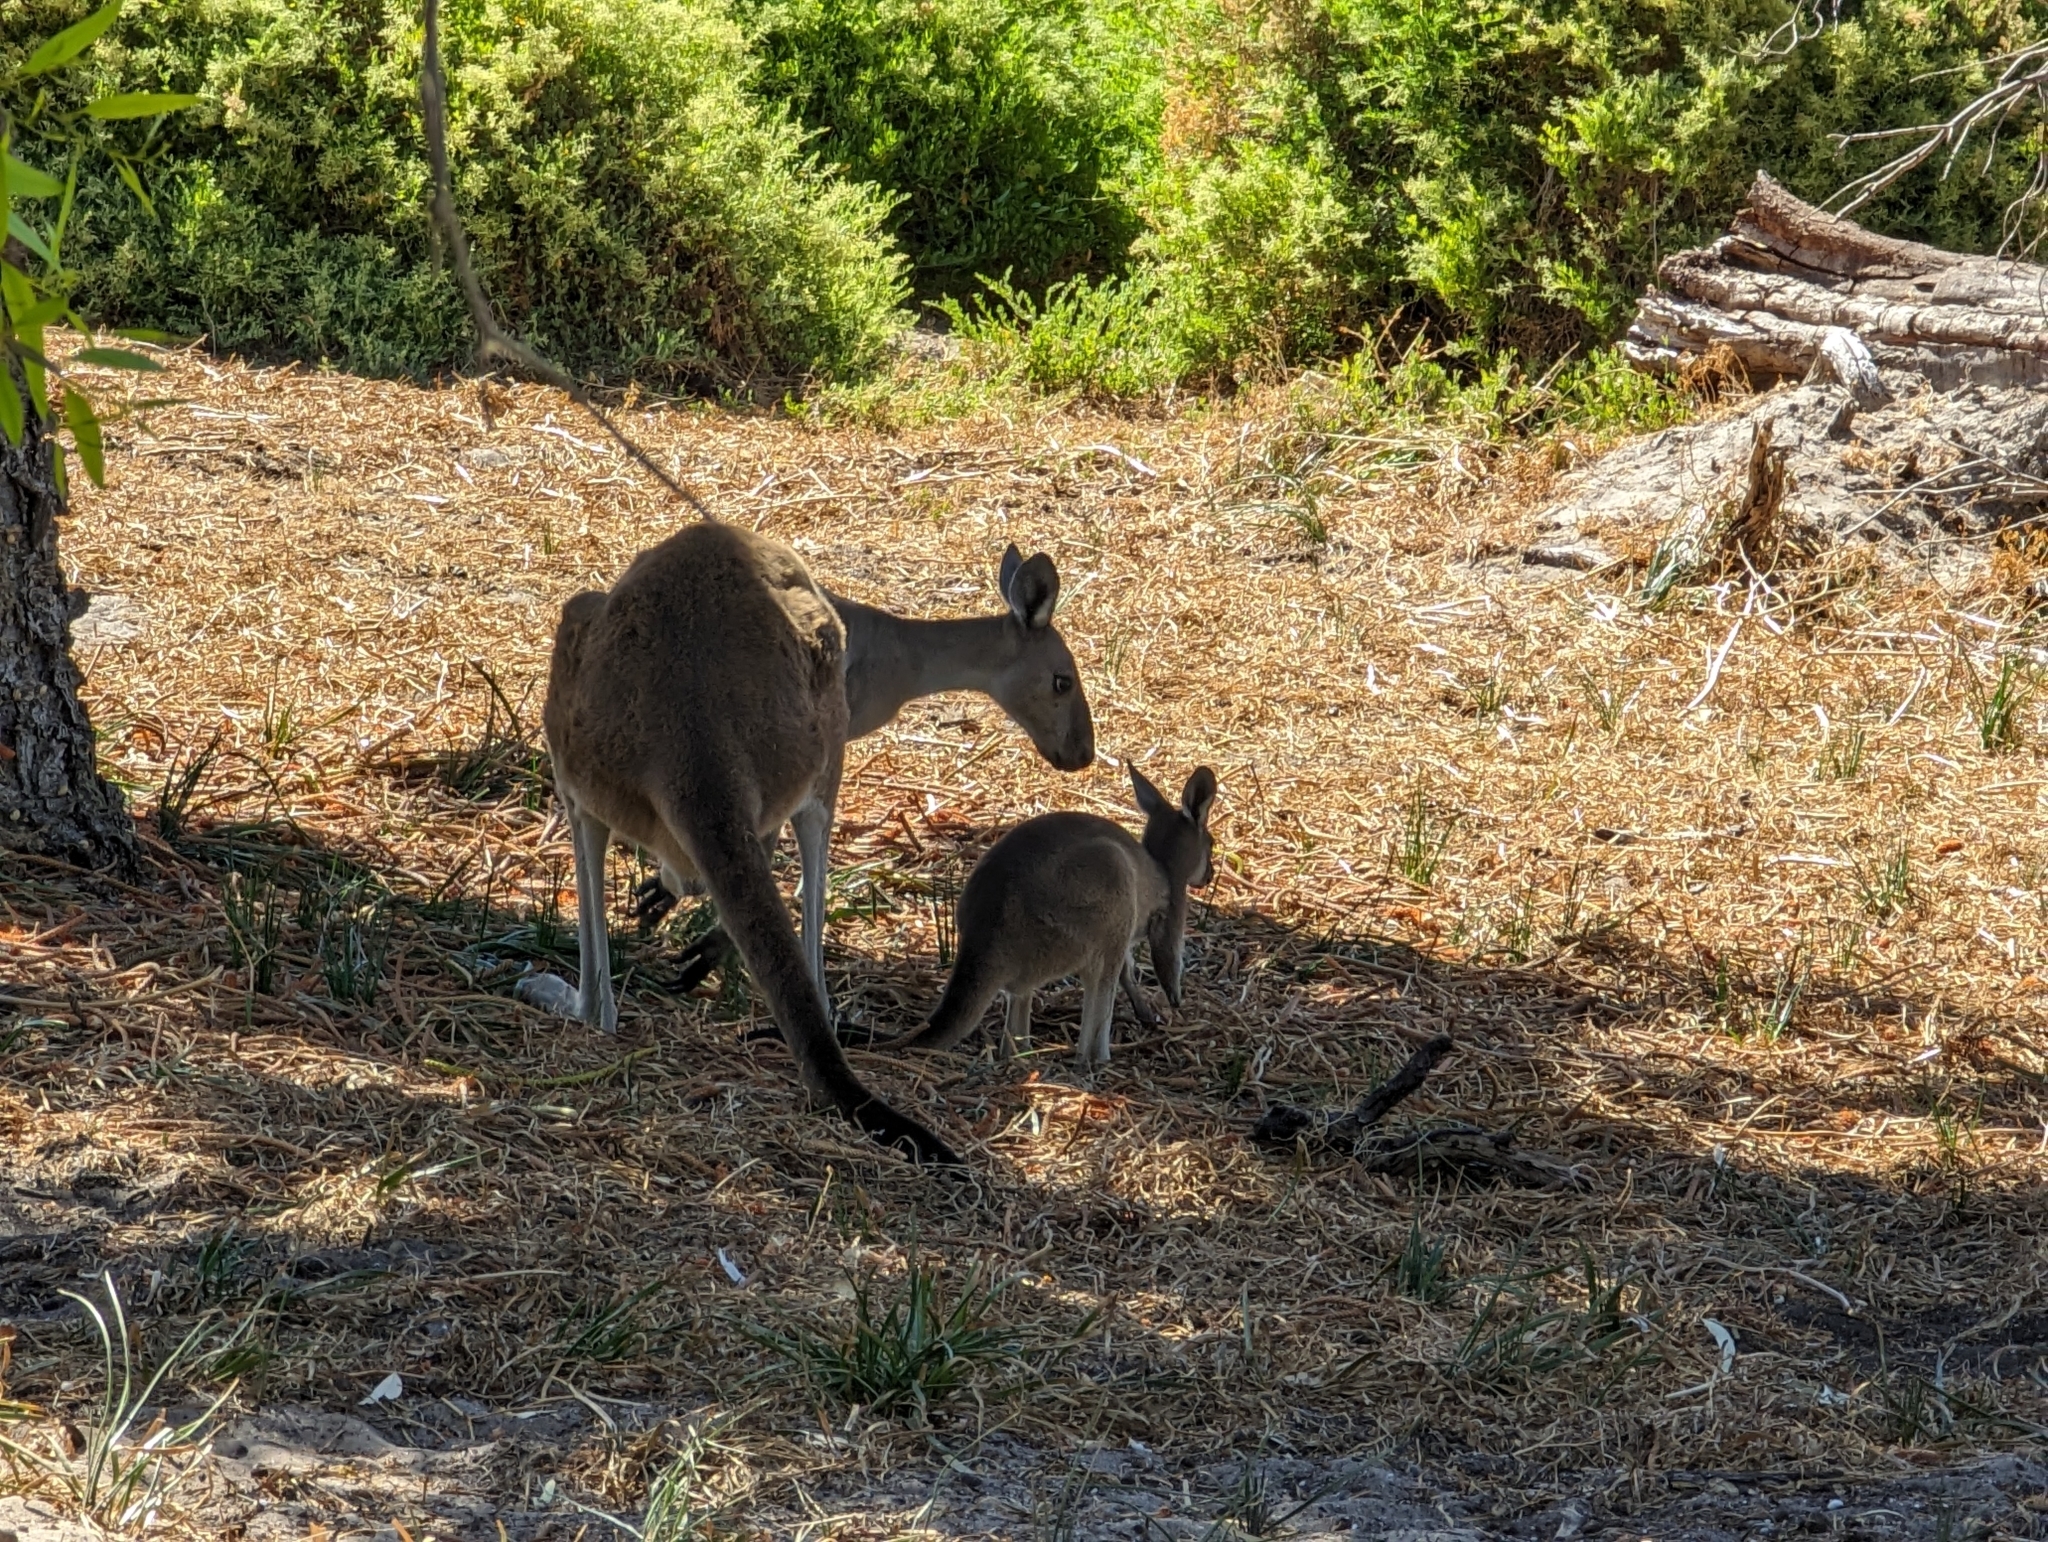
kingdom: Animalia
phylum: Chordata
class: Mammalia
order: Diprotodontia
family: Macropodidae
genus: Macropus
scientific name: Macropus fuliginosus
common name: Western grey kangaroo
